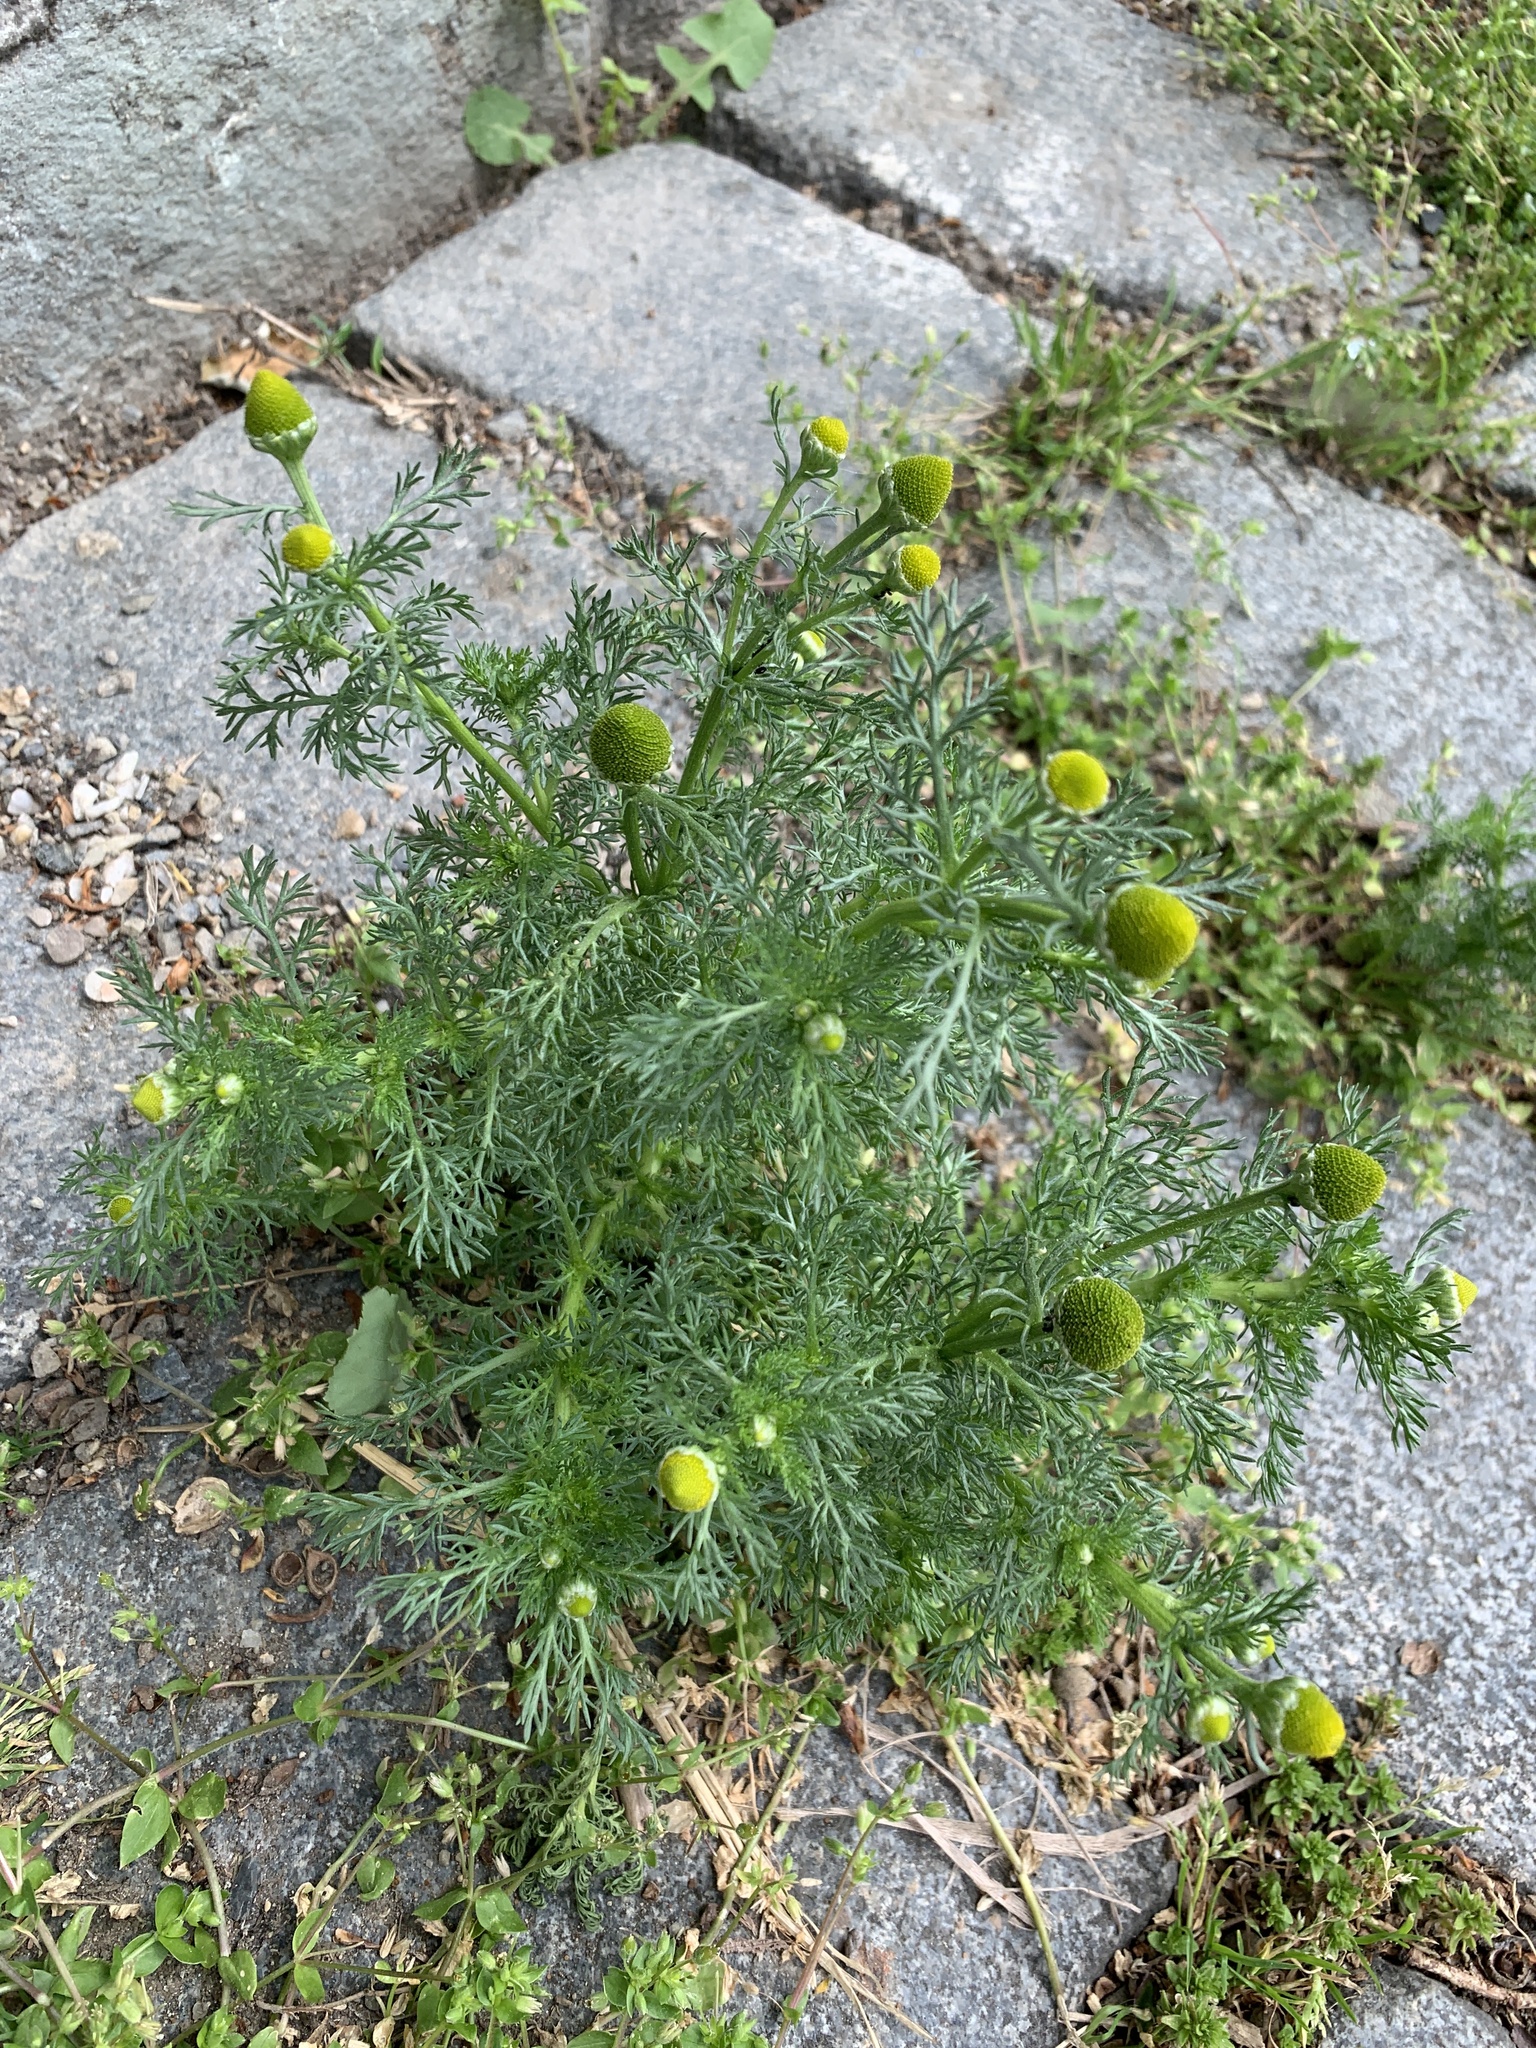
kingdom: Plantae
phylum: Tracheophyta
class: Magnoliopsida
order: Asterales
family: Asteraceae
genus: Matricaria
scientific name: Matricaria discoidea
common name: Disc mayweed
